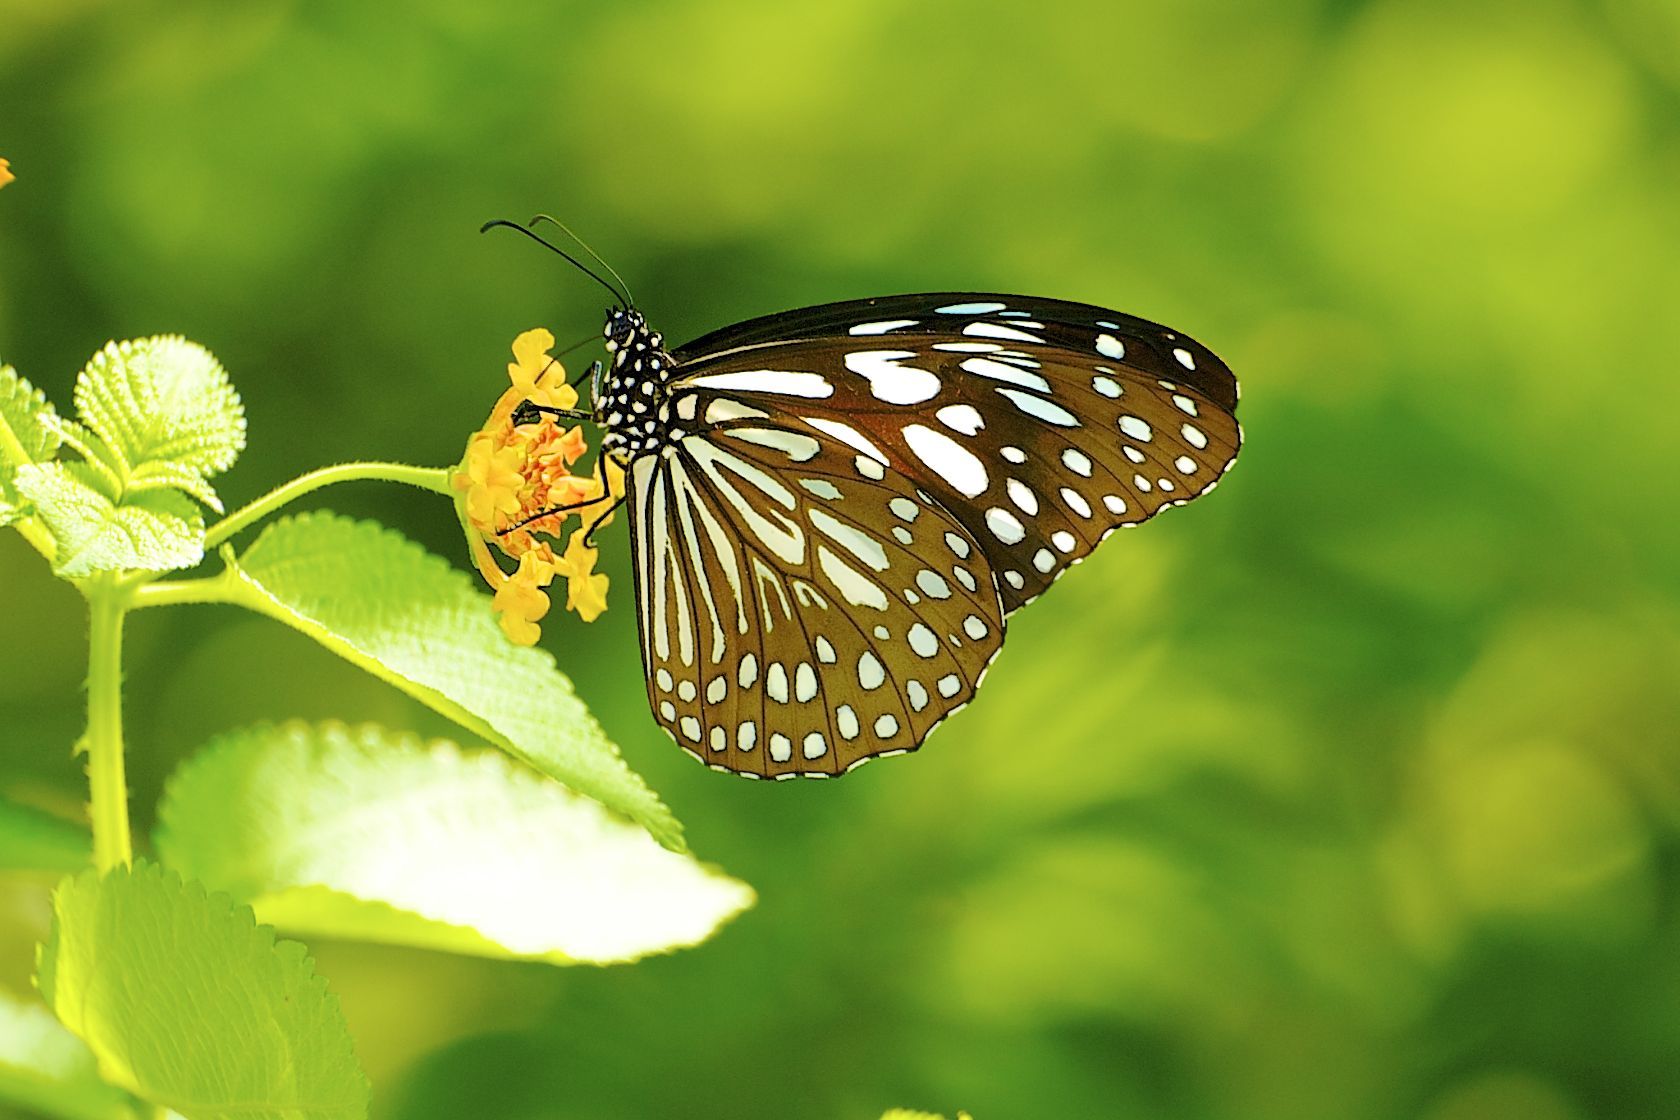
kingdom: Animalia
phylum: Arthropoda
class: Insecta
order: Lepidoptera
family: Nymphalidae
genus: Tirumala
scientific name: Tirumala limniace
